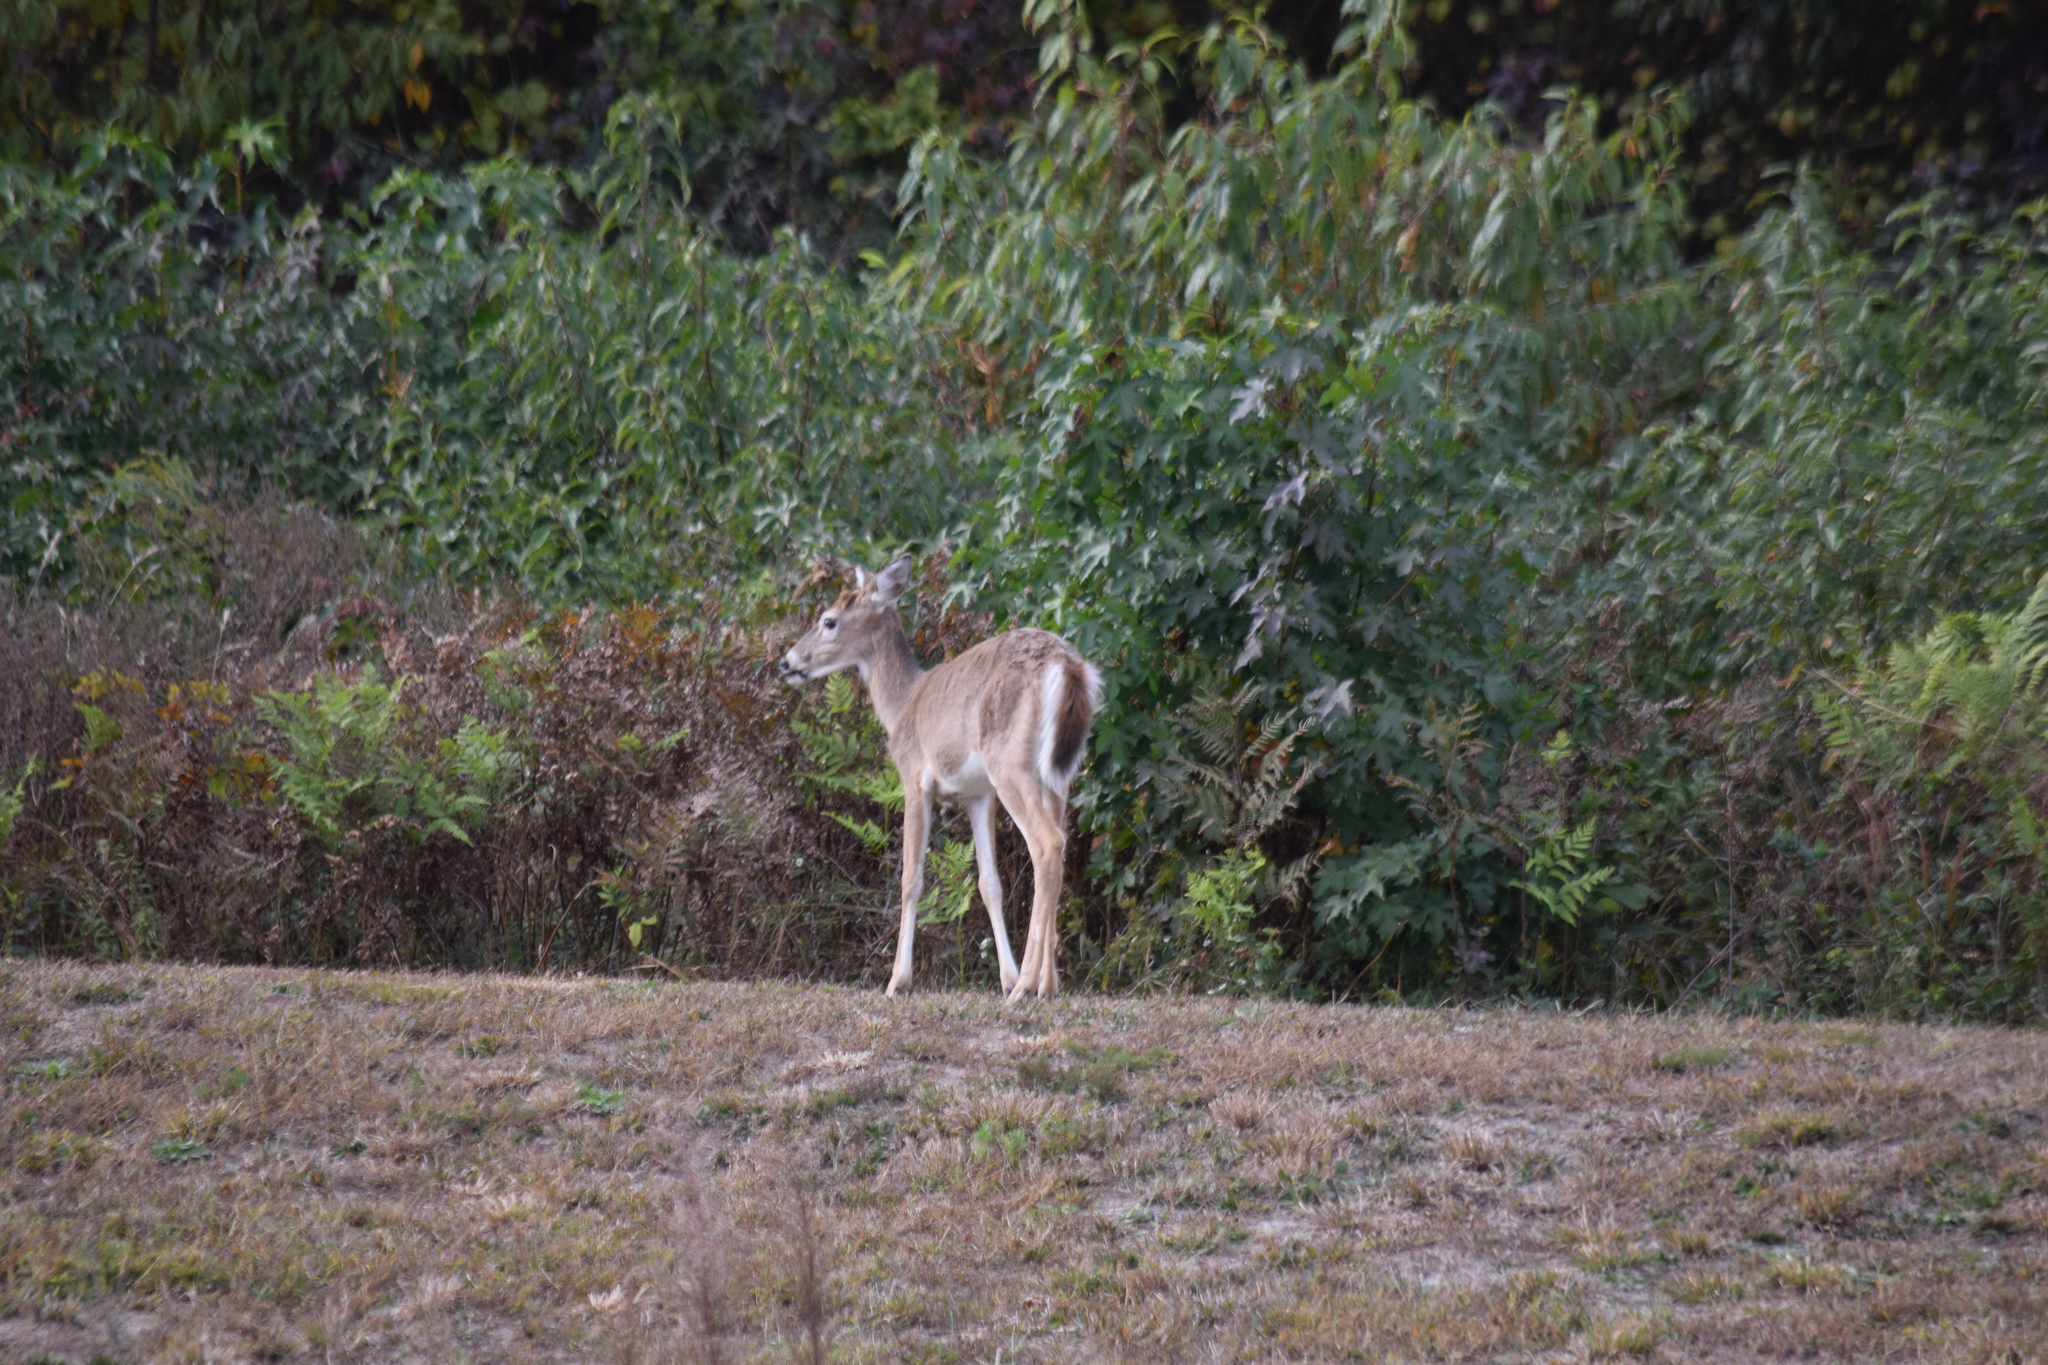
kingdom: Animalia
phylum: Chordata
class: Mammalia
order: Artiodactyla
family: Cervidae
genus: Odocoileus
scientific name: Odocoileus virginianus
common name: White-tailed deer
